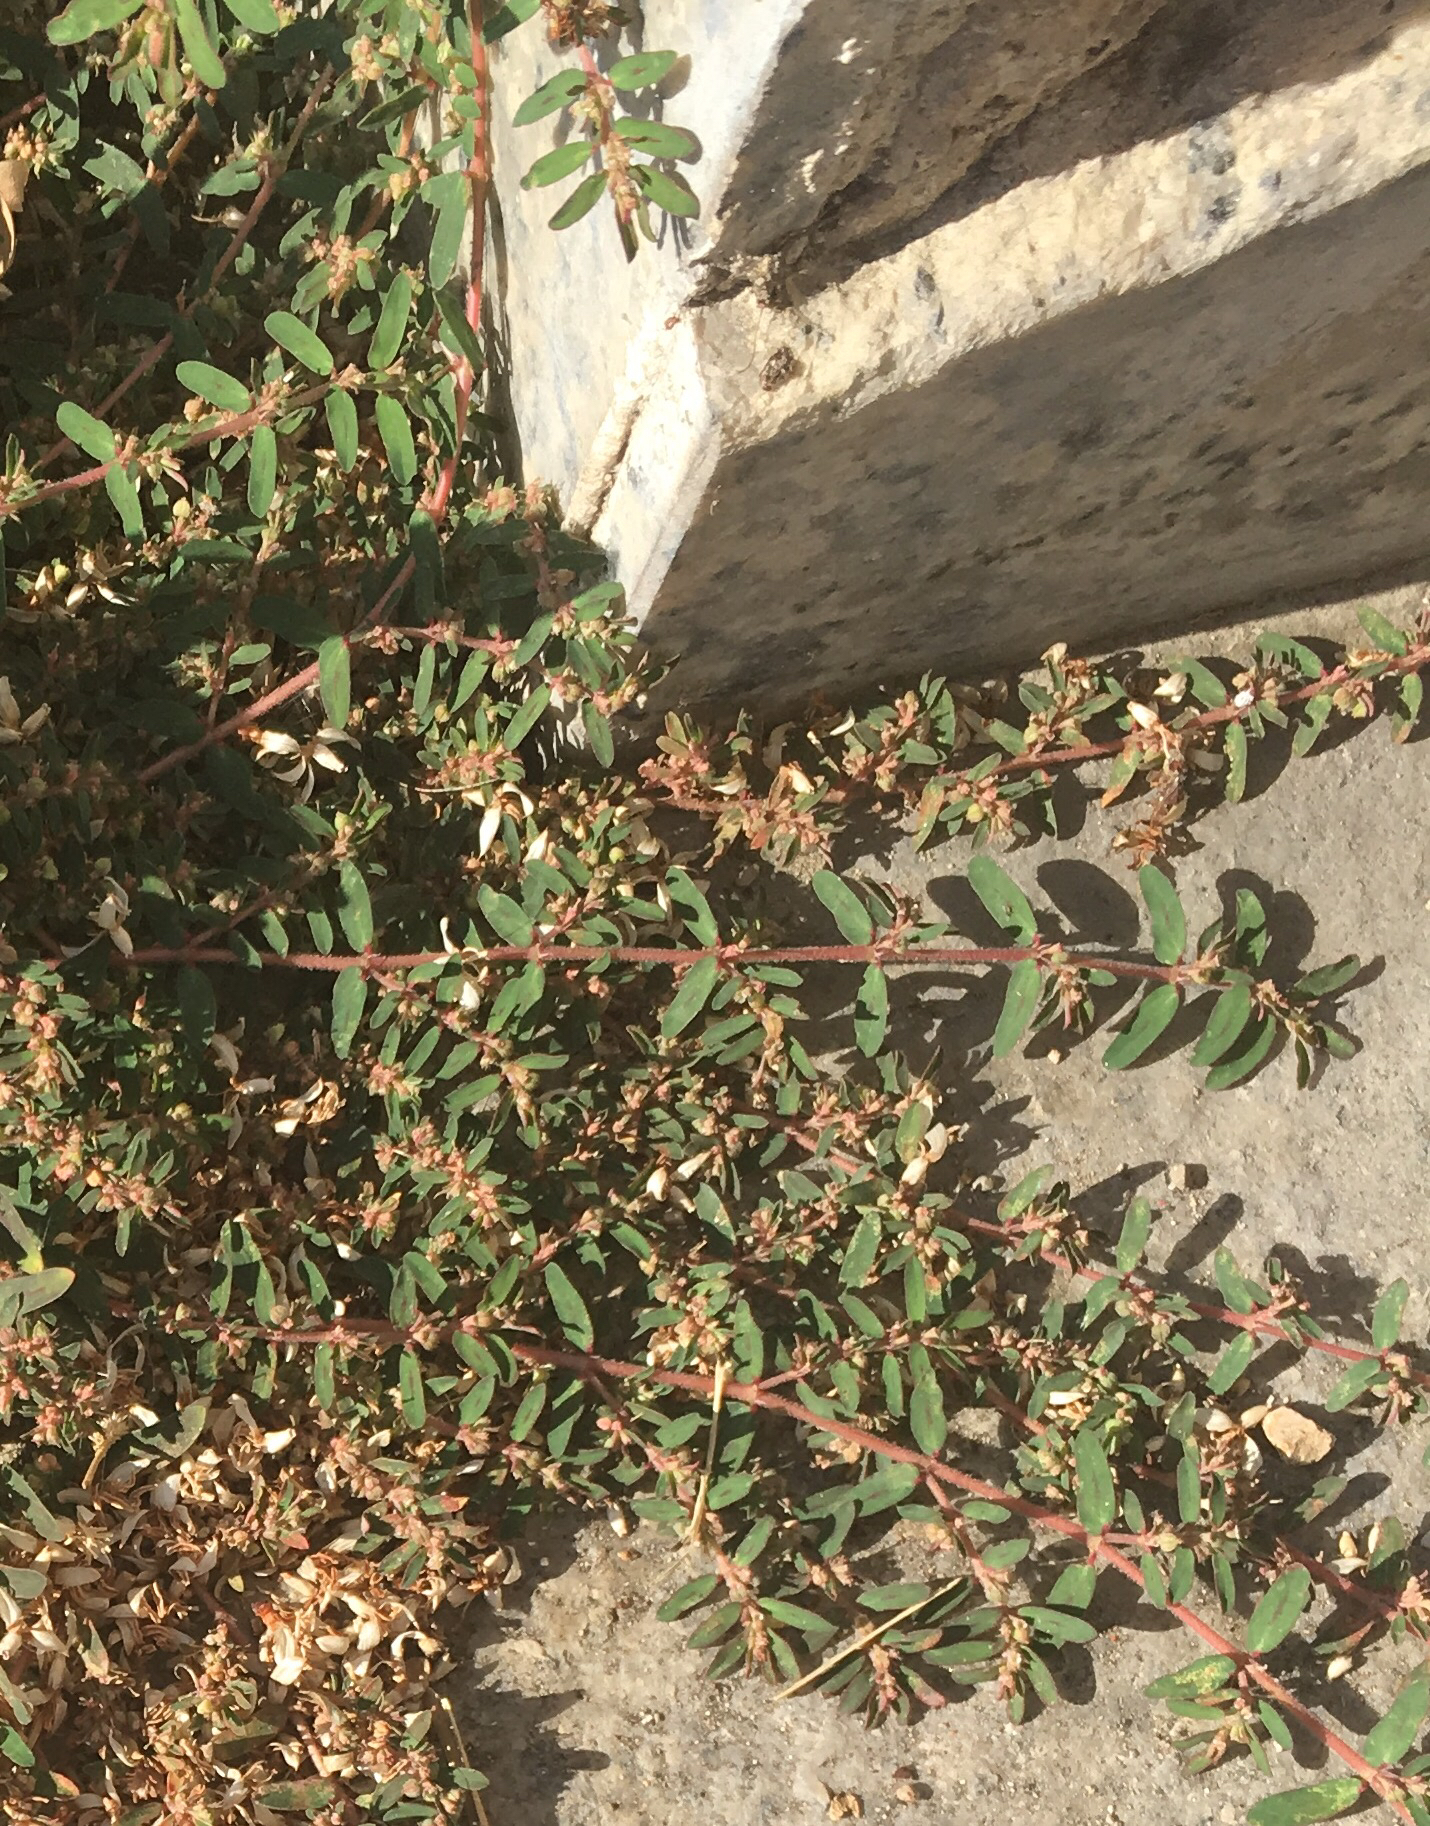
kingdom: Plantae
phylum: Tracheophyta
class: Magnoliopsida
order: Malpighiales
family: Euphorbiaceae
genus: Euphorbia
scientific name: Euphorbia maculata
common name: Spotted spurge
